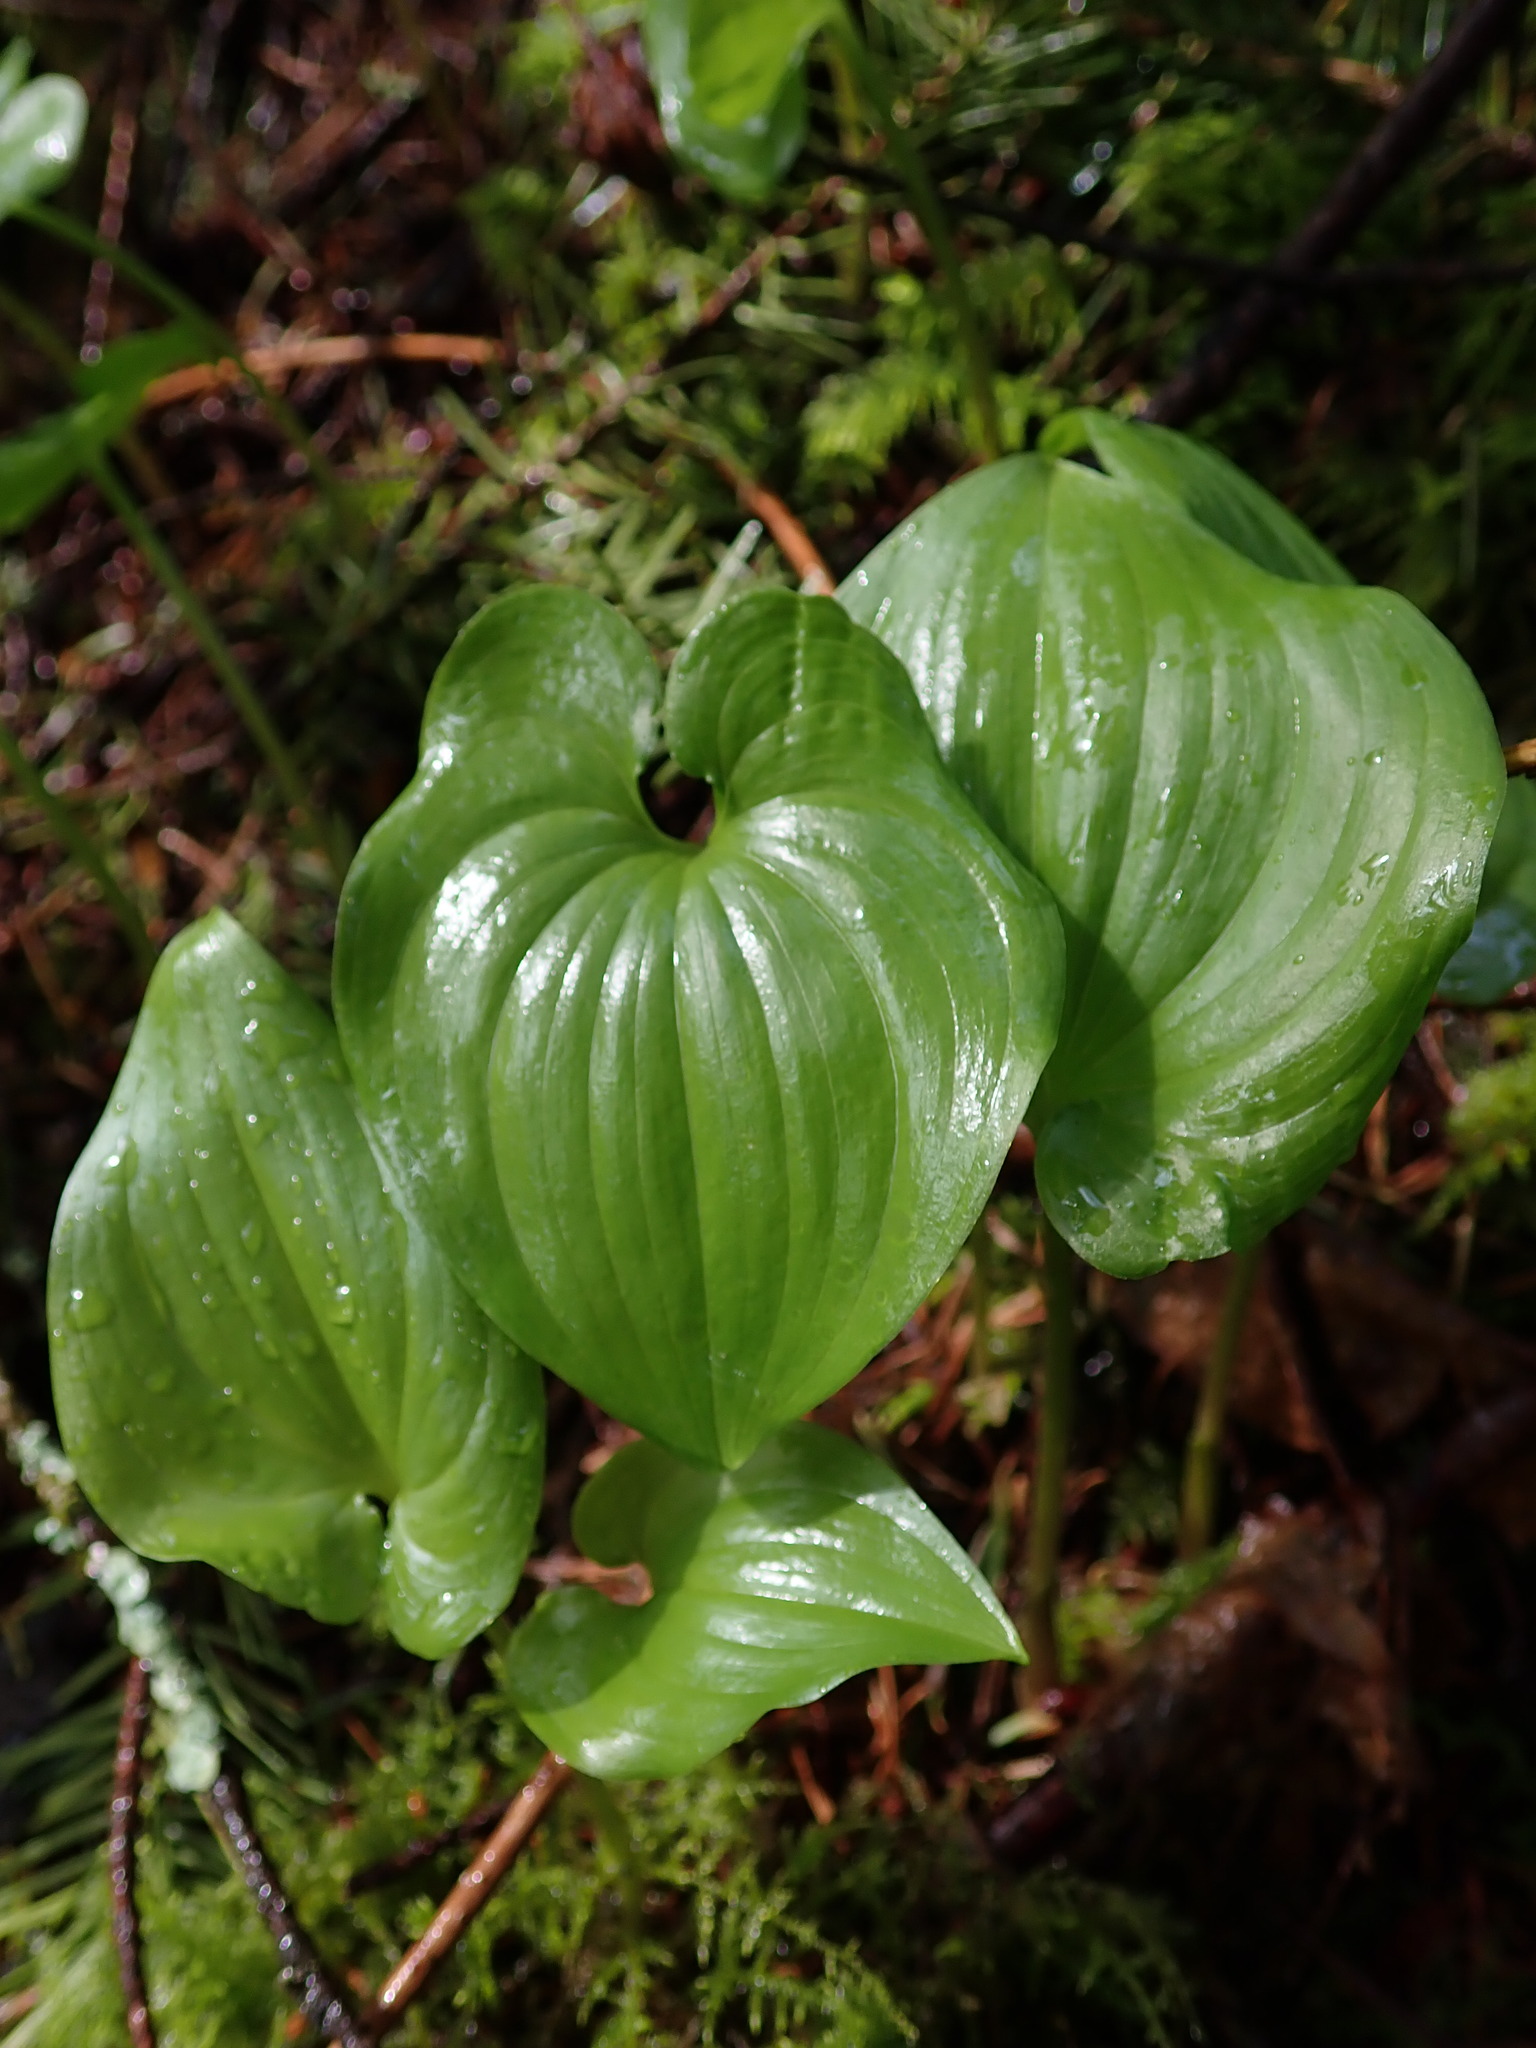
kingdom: Plantae
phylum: Tracheophyta
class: Liliopsida
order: Asparagales
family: Asparagaceae
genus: Maianthemum
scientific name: Maianthemum dilatatum
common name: False lily-of-the-valley
